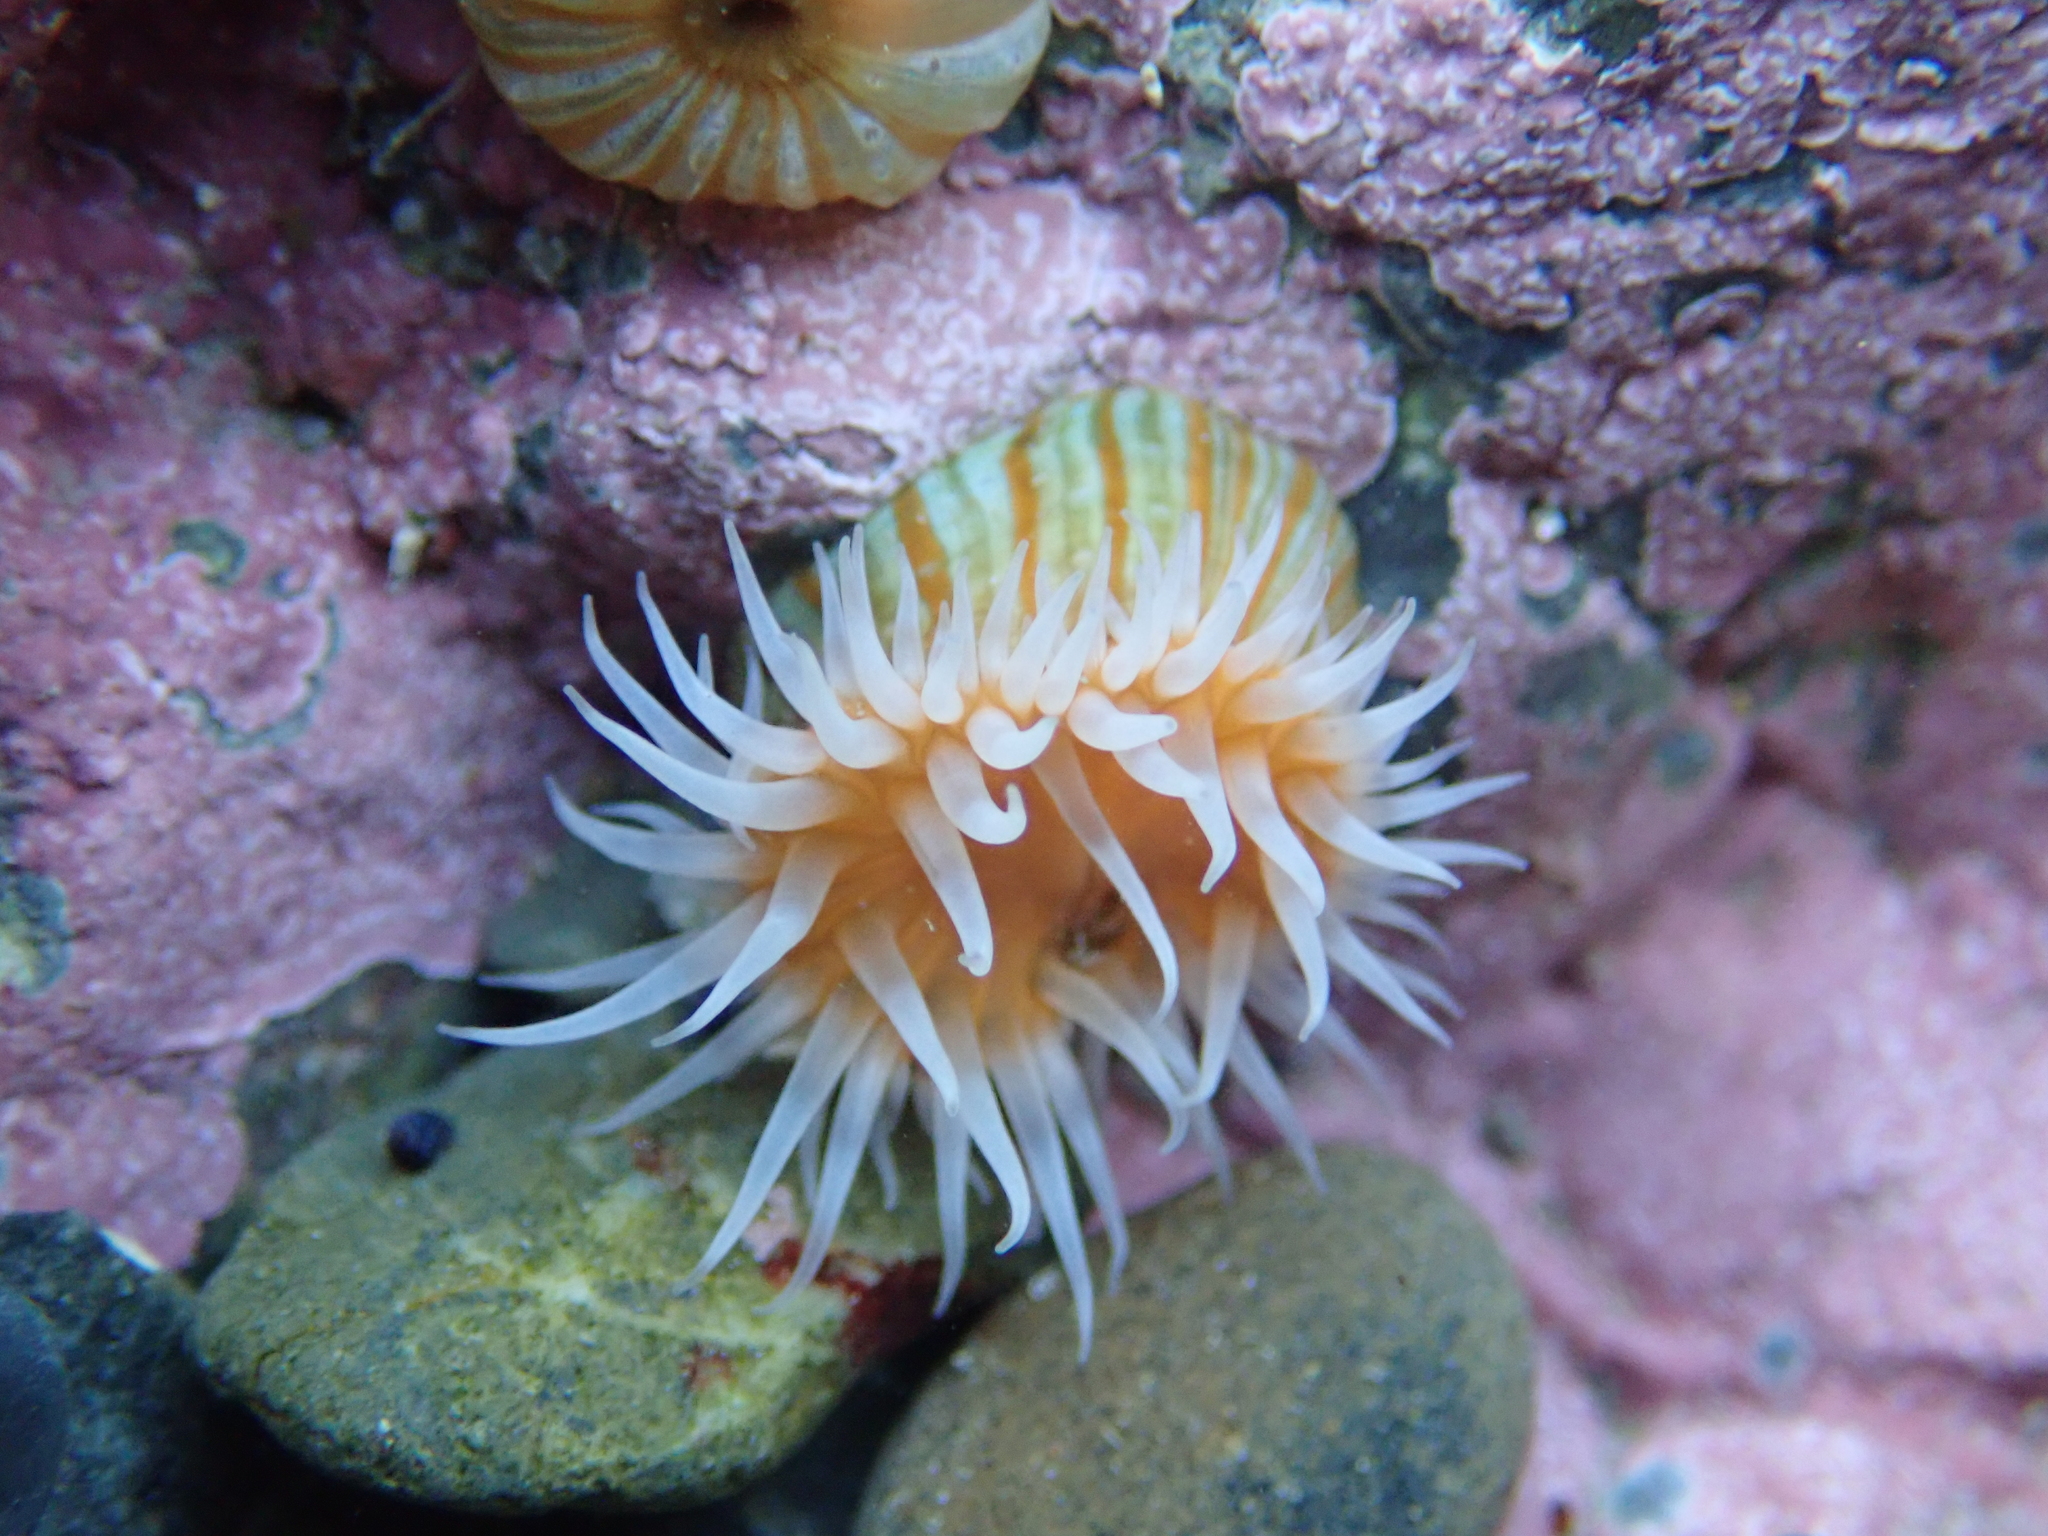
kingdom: Animalia
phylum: Cnidaria
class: Anthozoa
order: Actiniaria
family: Sagartiidae
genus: Anthothoe
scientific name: Anthothoe albocincta
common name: Orange striped anemone
